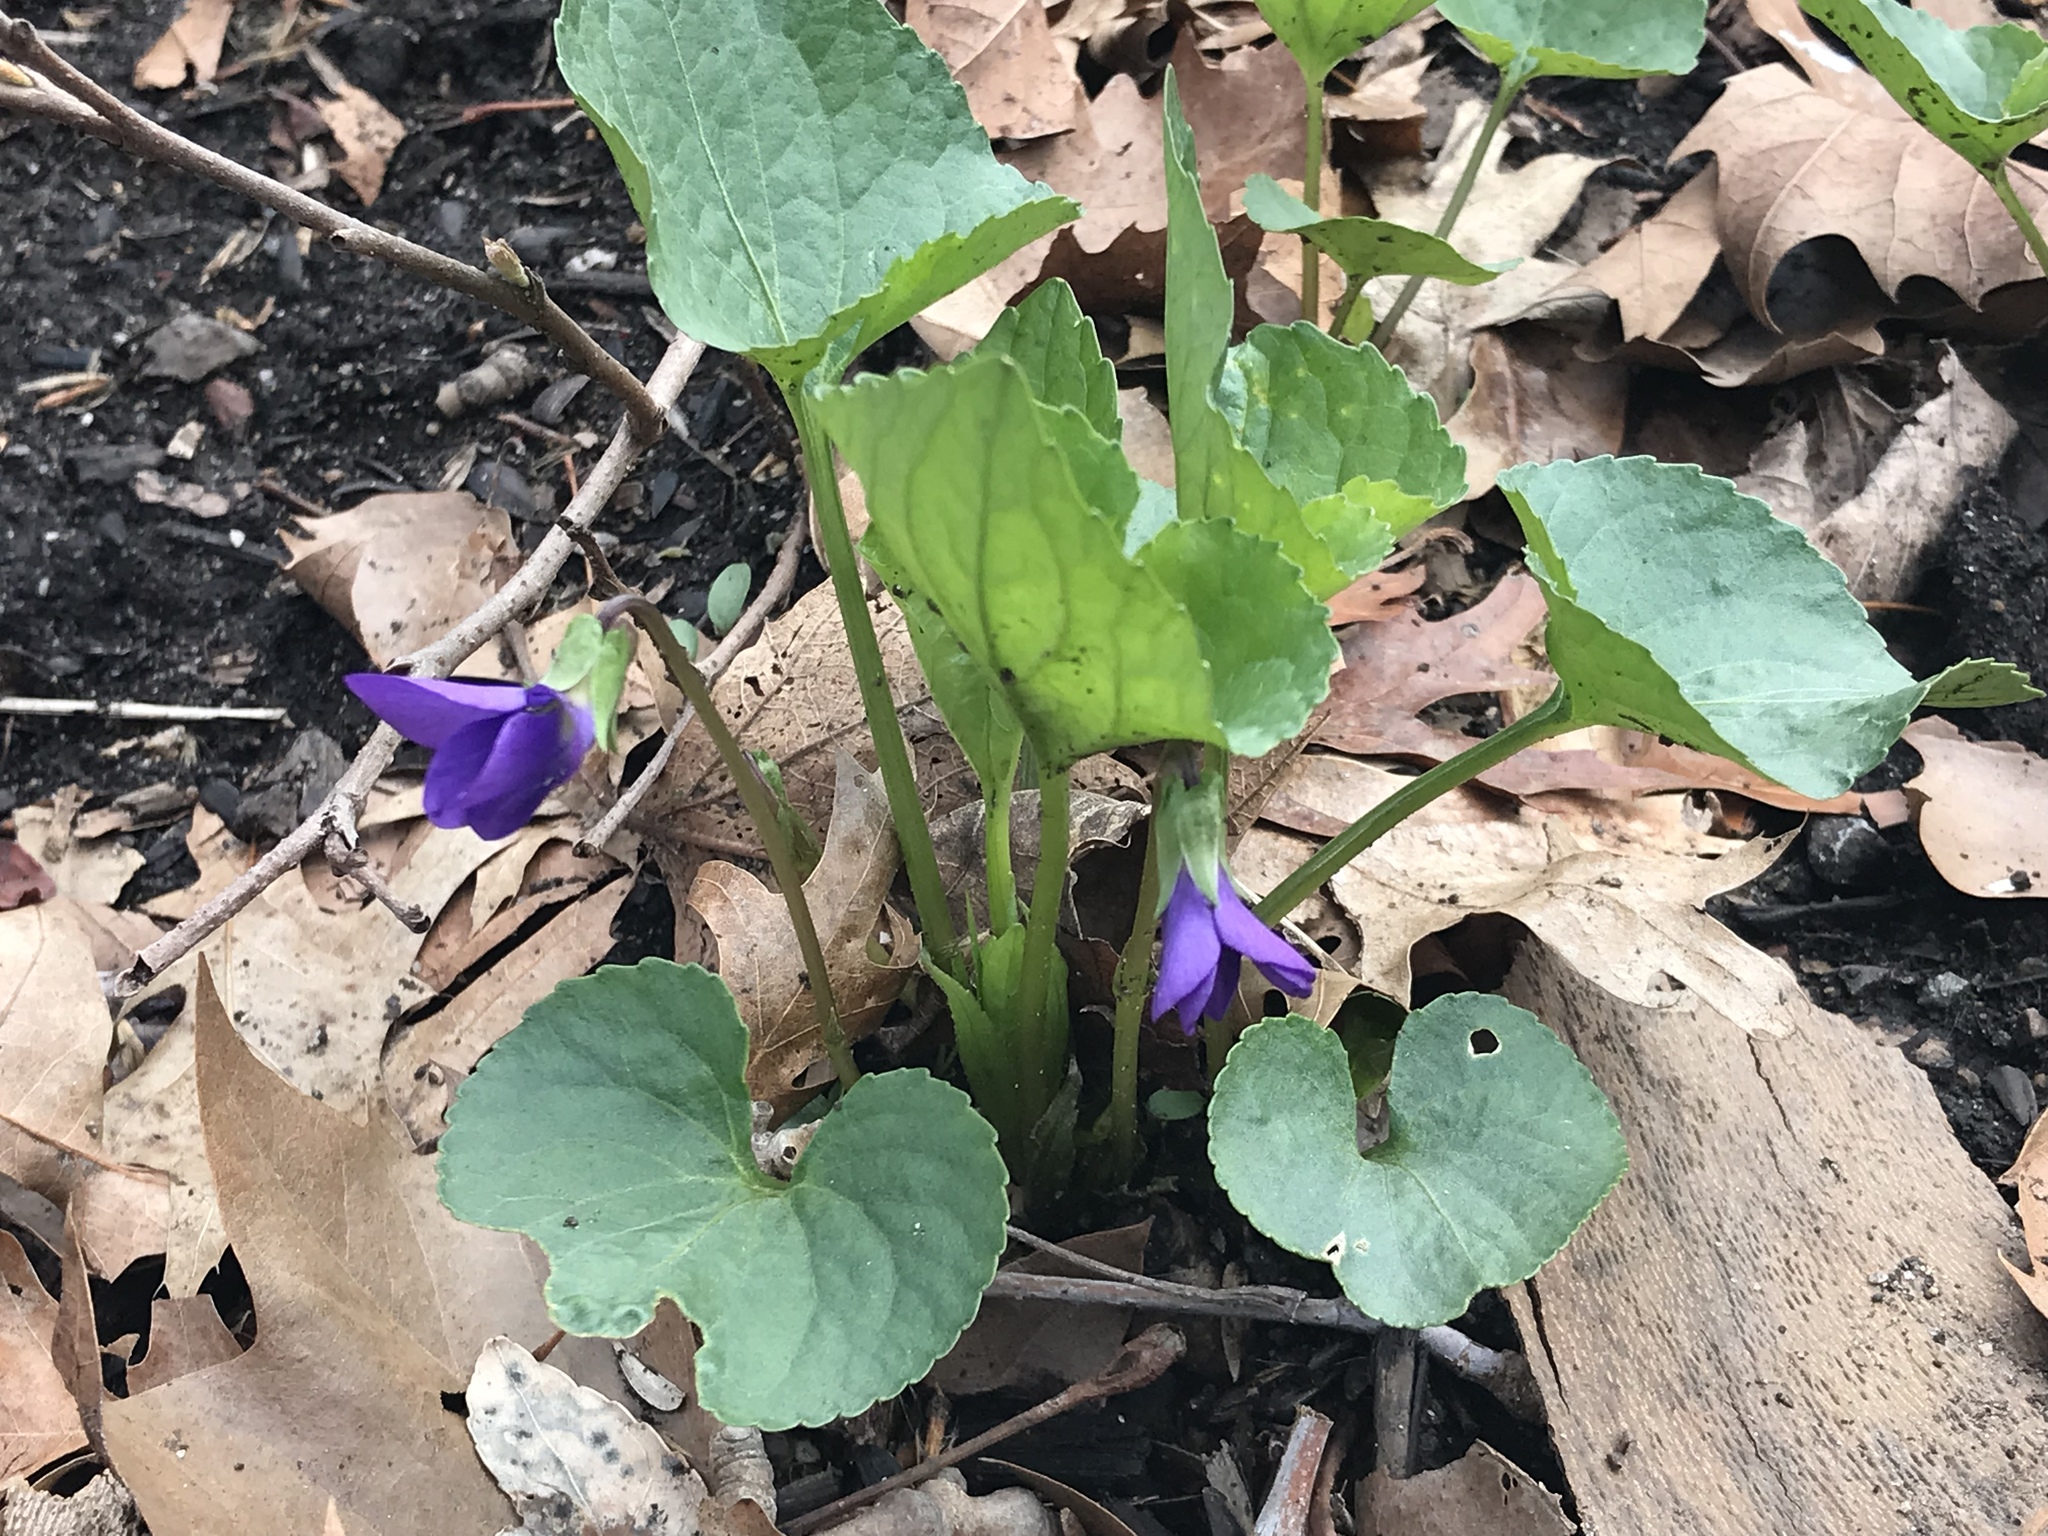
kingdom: Plantae
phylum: Tracheophyta
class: Magnoliopsida
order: Malpighiales
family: Violaceae
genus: Viola
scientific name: Viola sororia
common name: Dooryard violet
